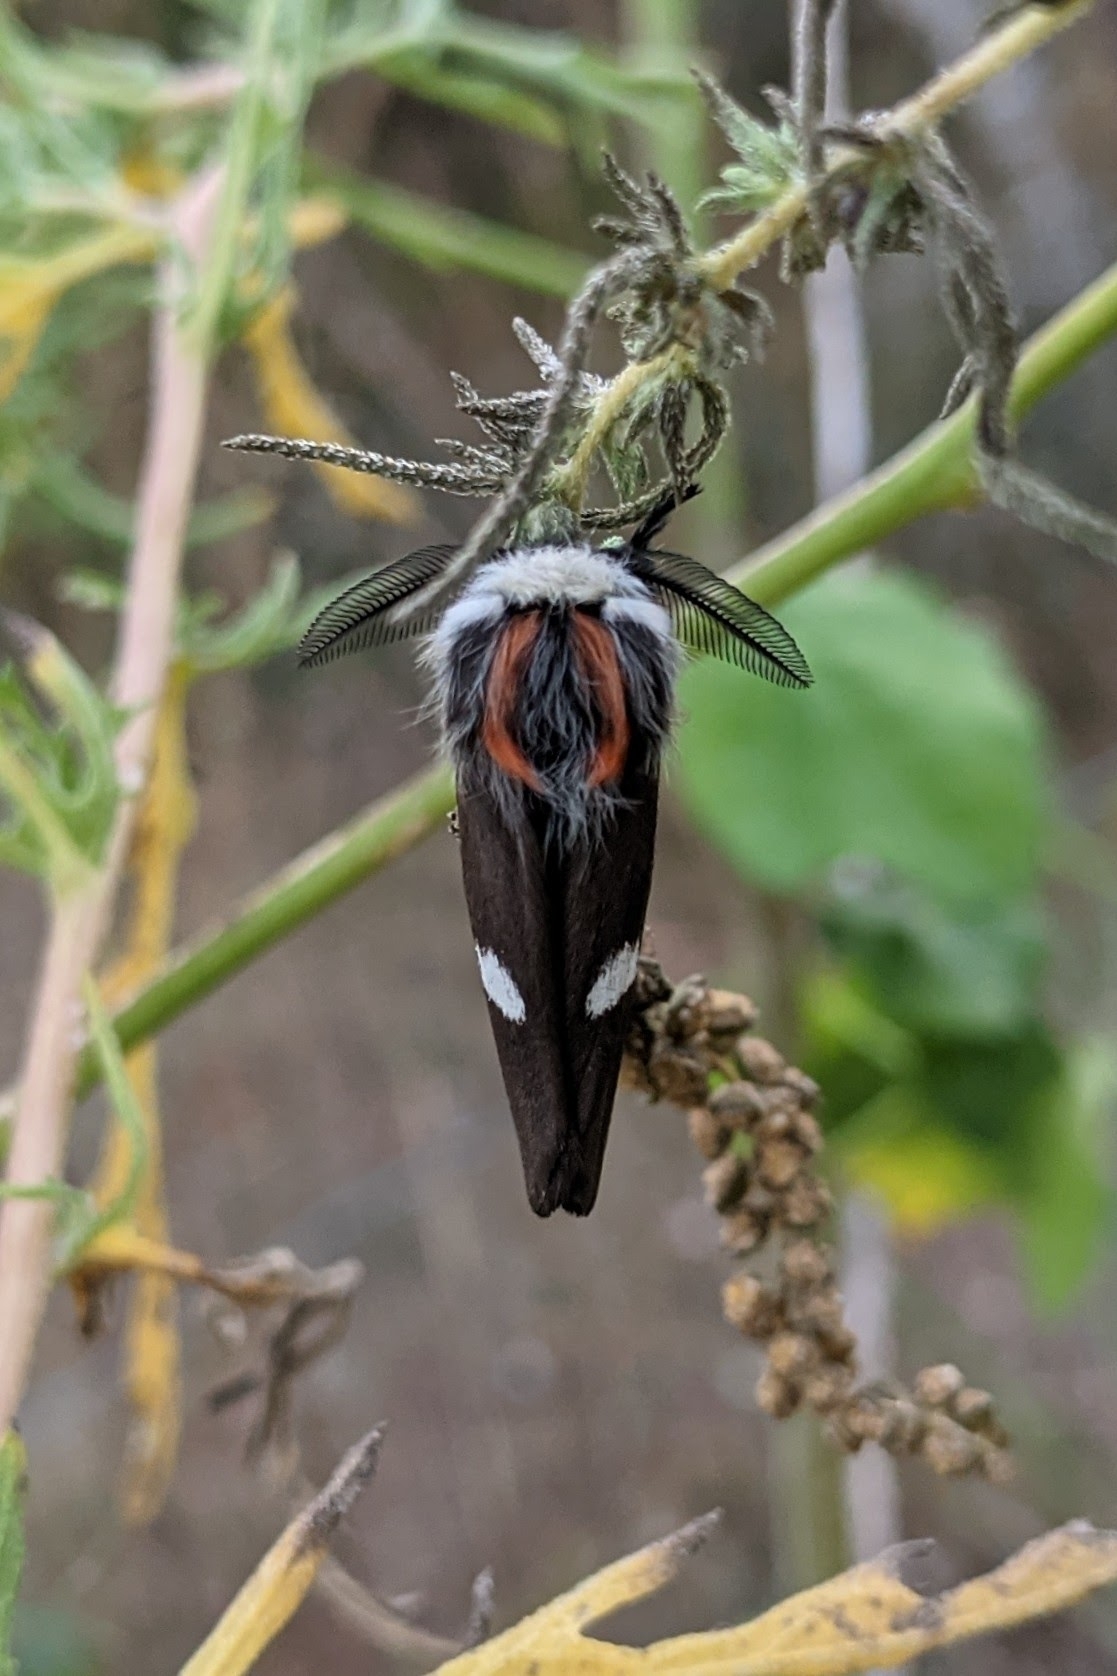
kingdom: Animalia
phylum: Arthropoda
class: Insecta
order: Lepidoptera
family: Saturniidae
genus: Hemileuca
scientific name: Hemileuca grotei
